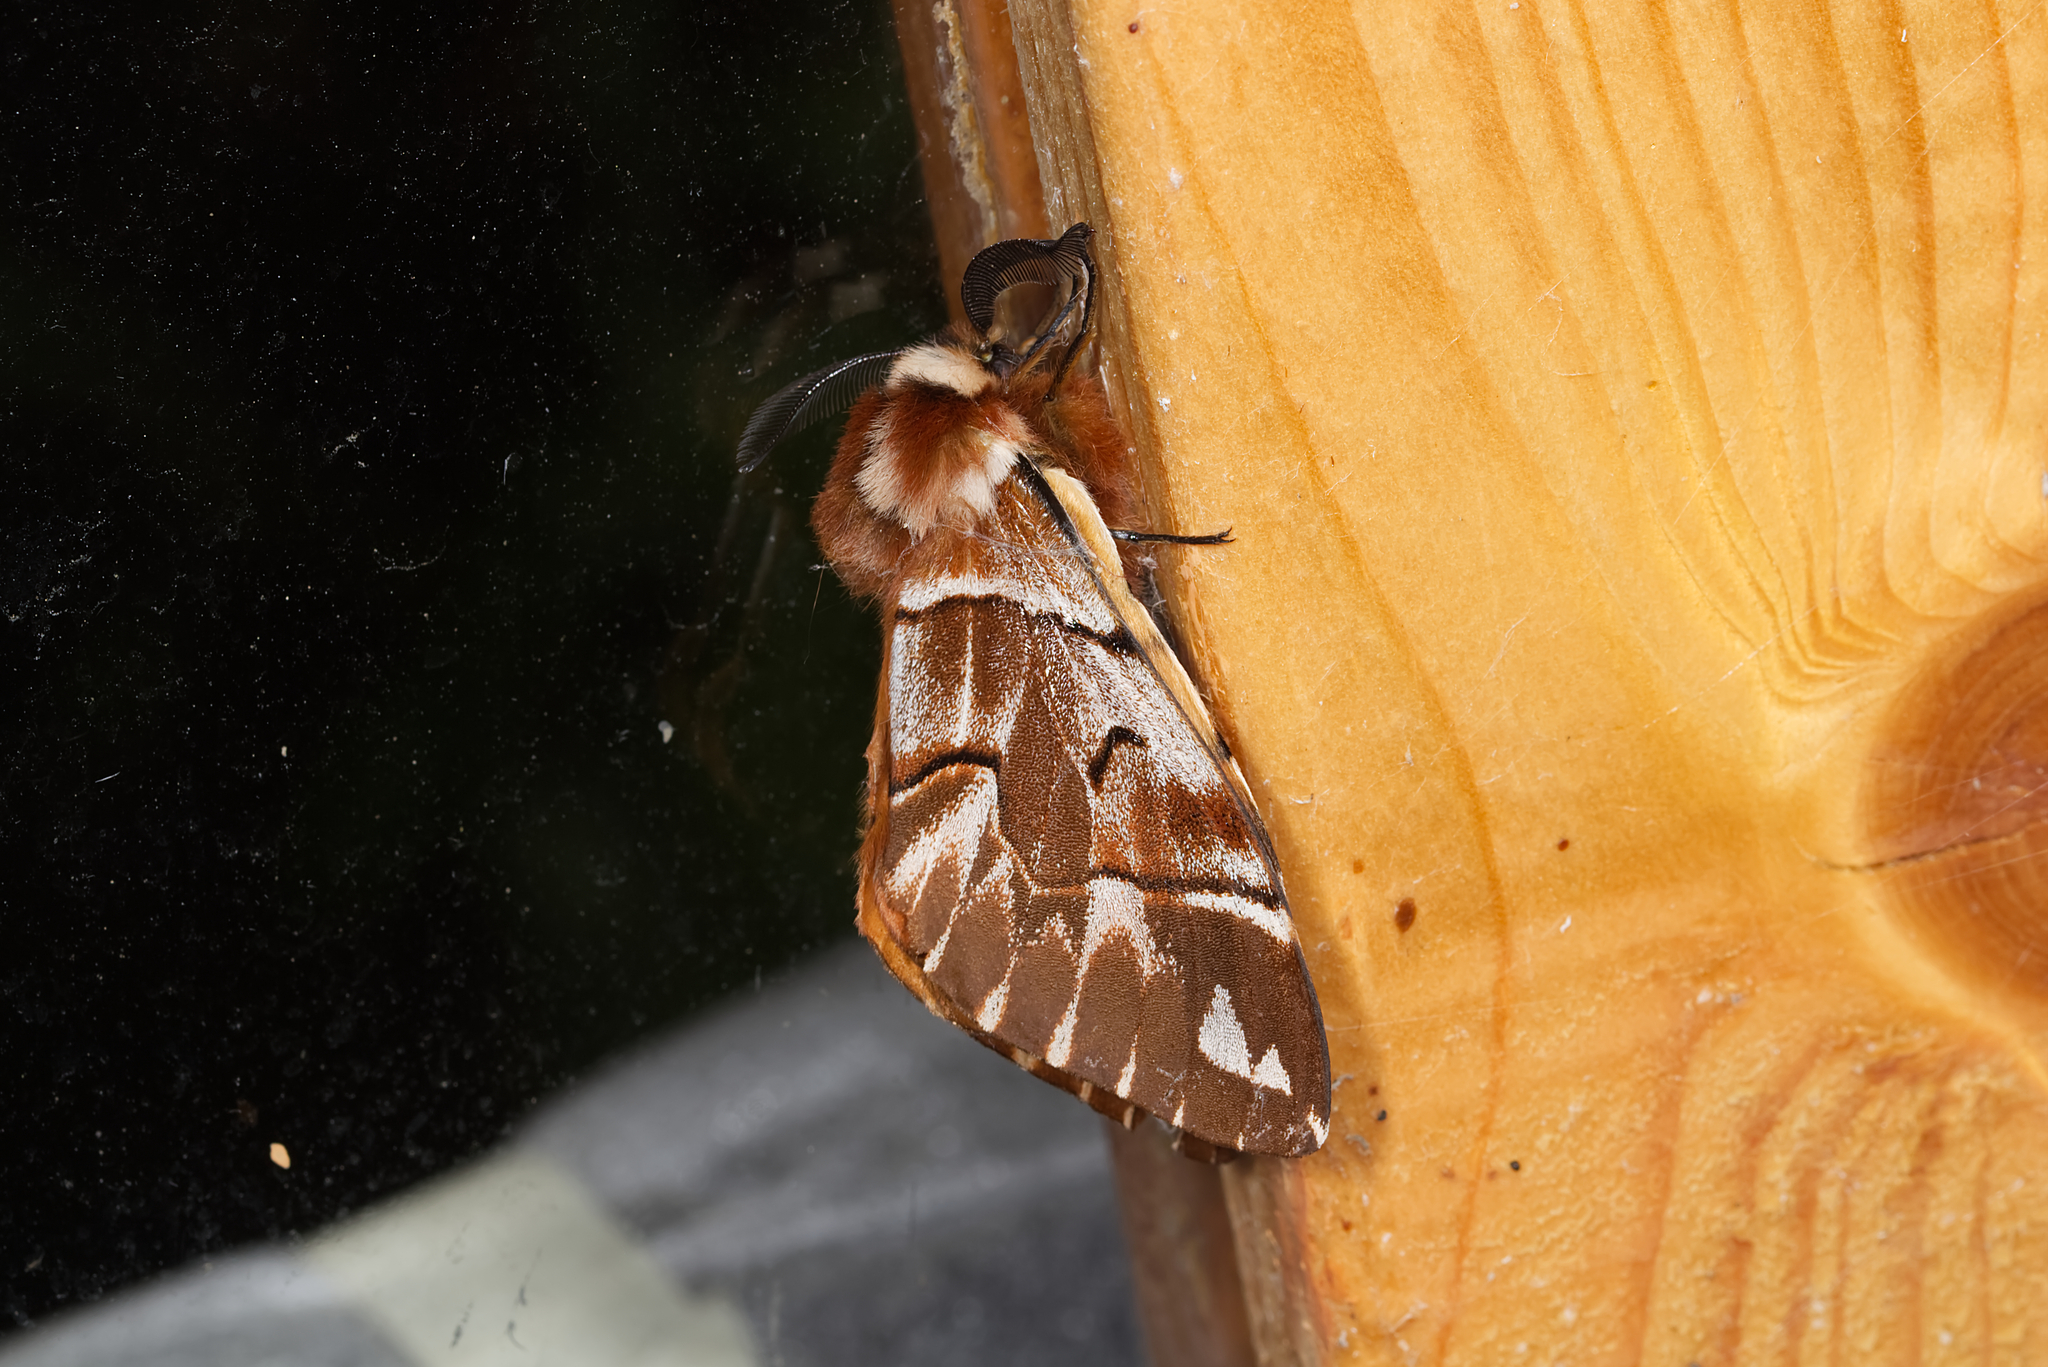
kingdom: Animalia
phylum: Arthropoda
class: Insecta
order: Lepidoptera
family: Endromidae
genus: Endromis
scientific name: Endromis versicolora
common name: Kentish glory
